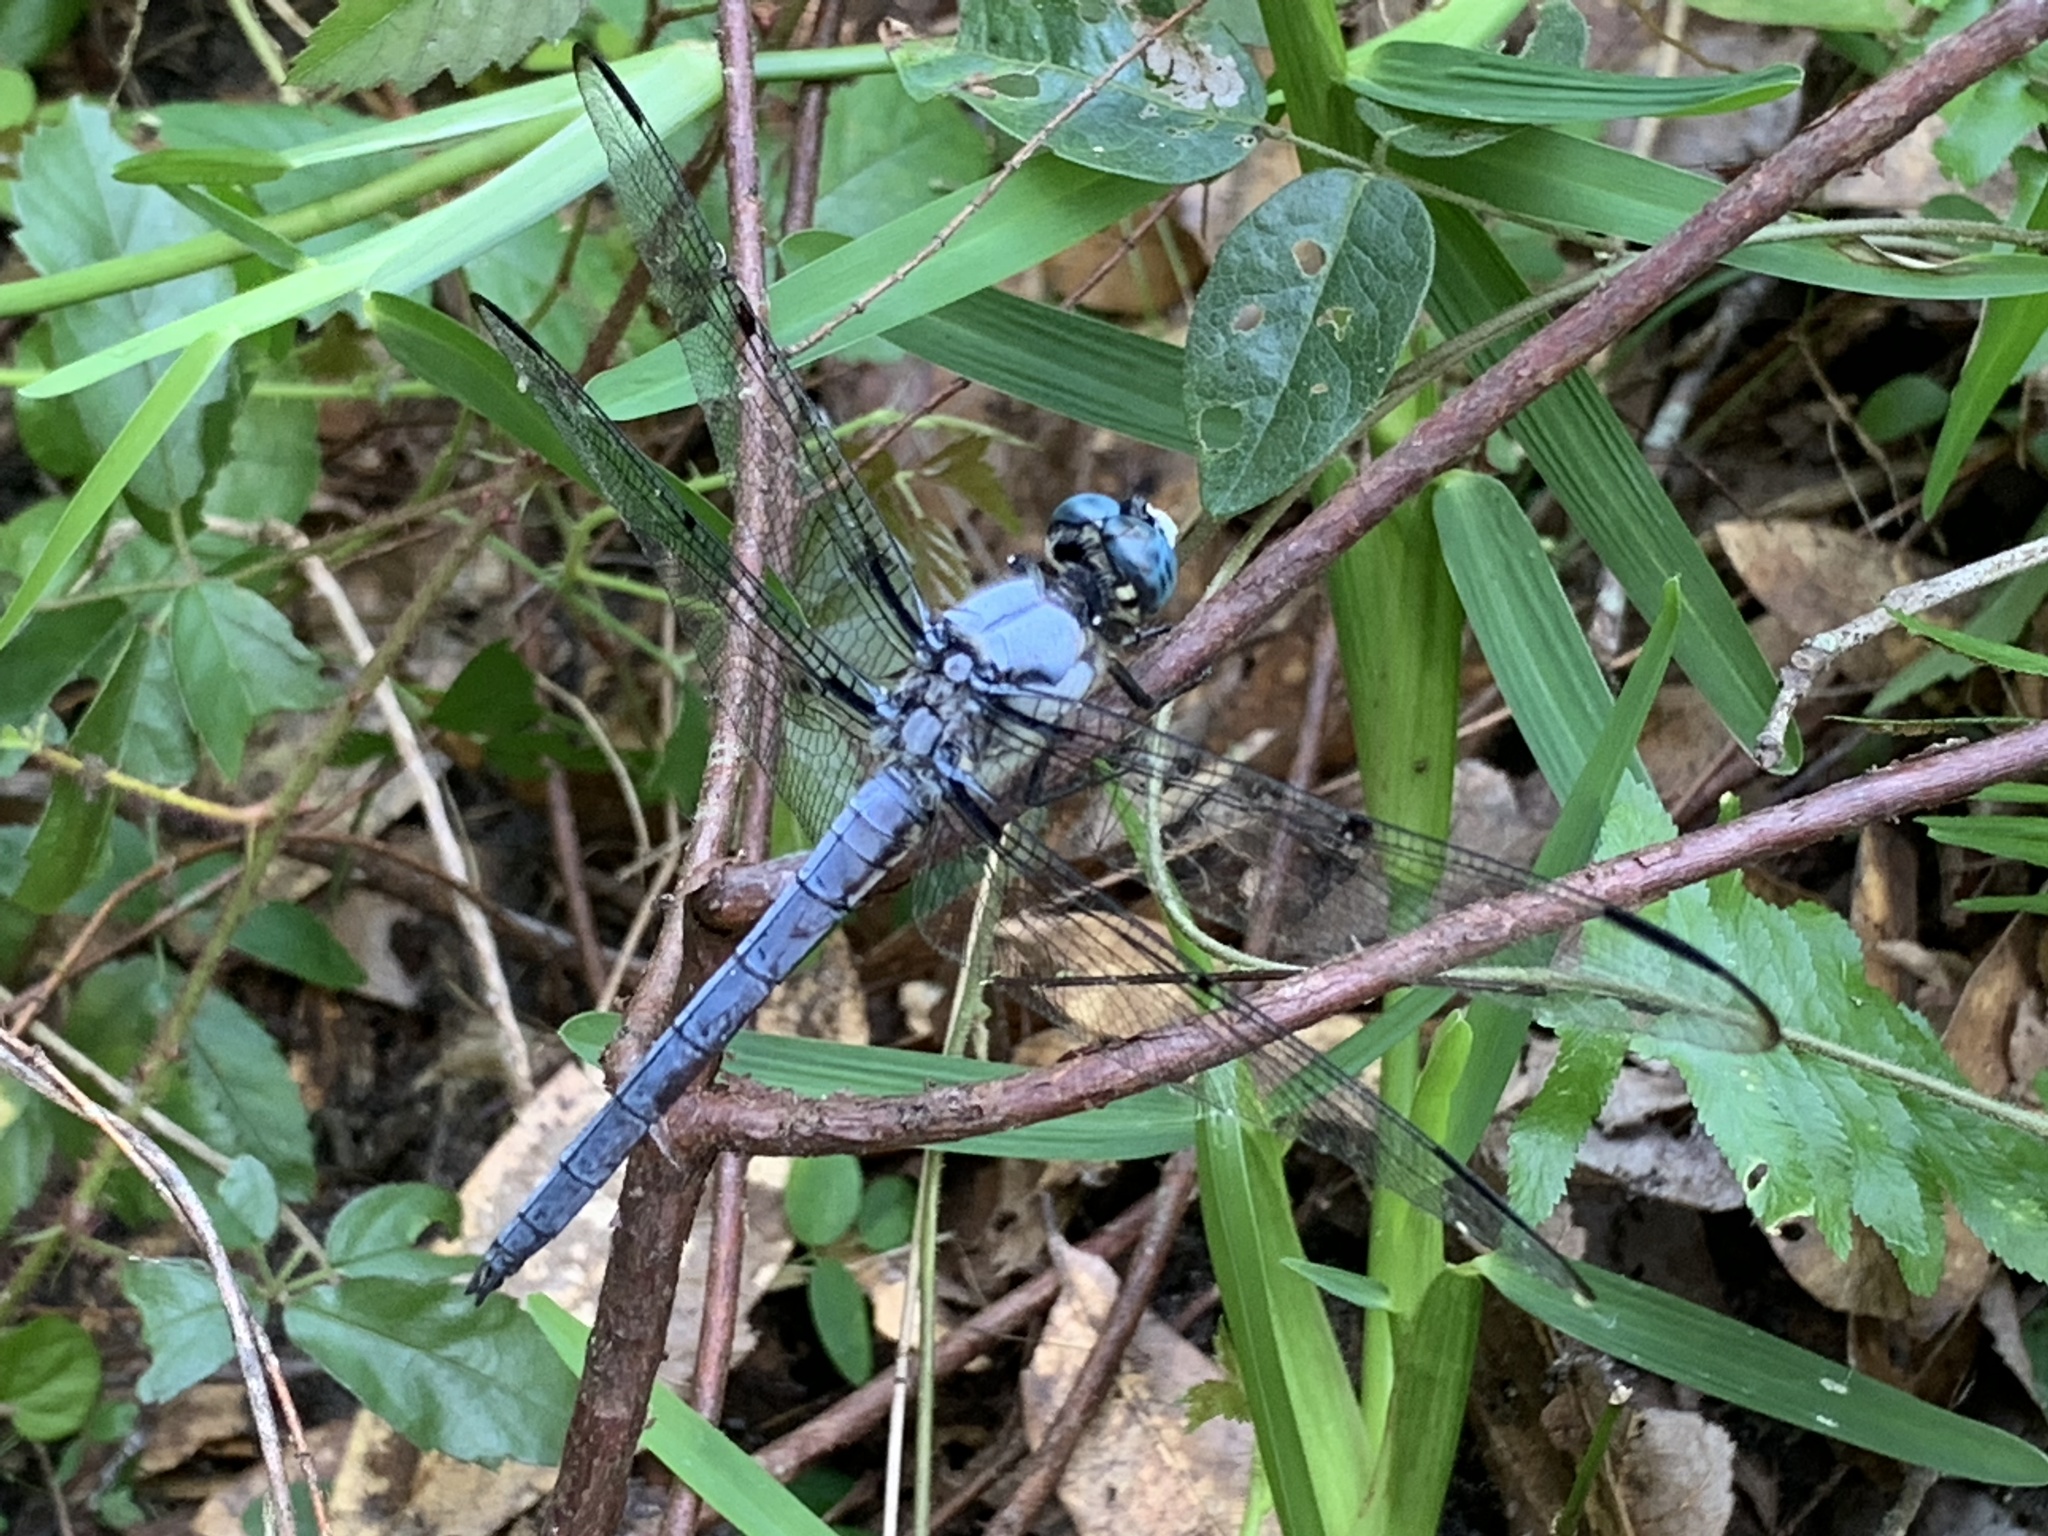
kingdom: Animalia
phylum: Arthropoda
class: Insecta
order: Odonata
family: Libellulidae
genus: Libellula
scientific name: Libellula vibrans
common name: Great blue skimmer
